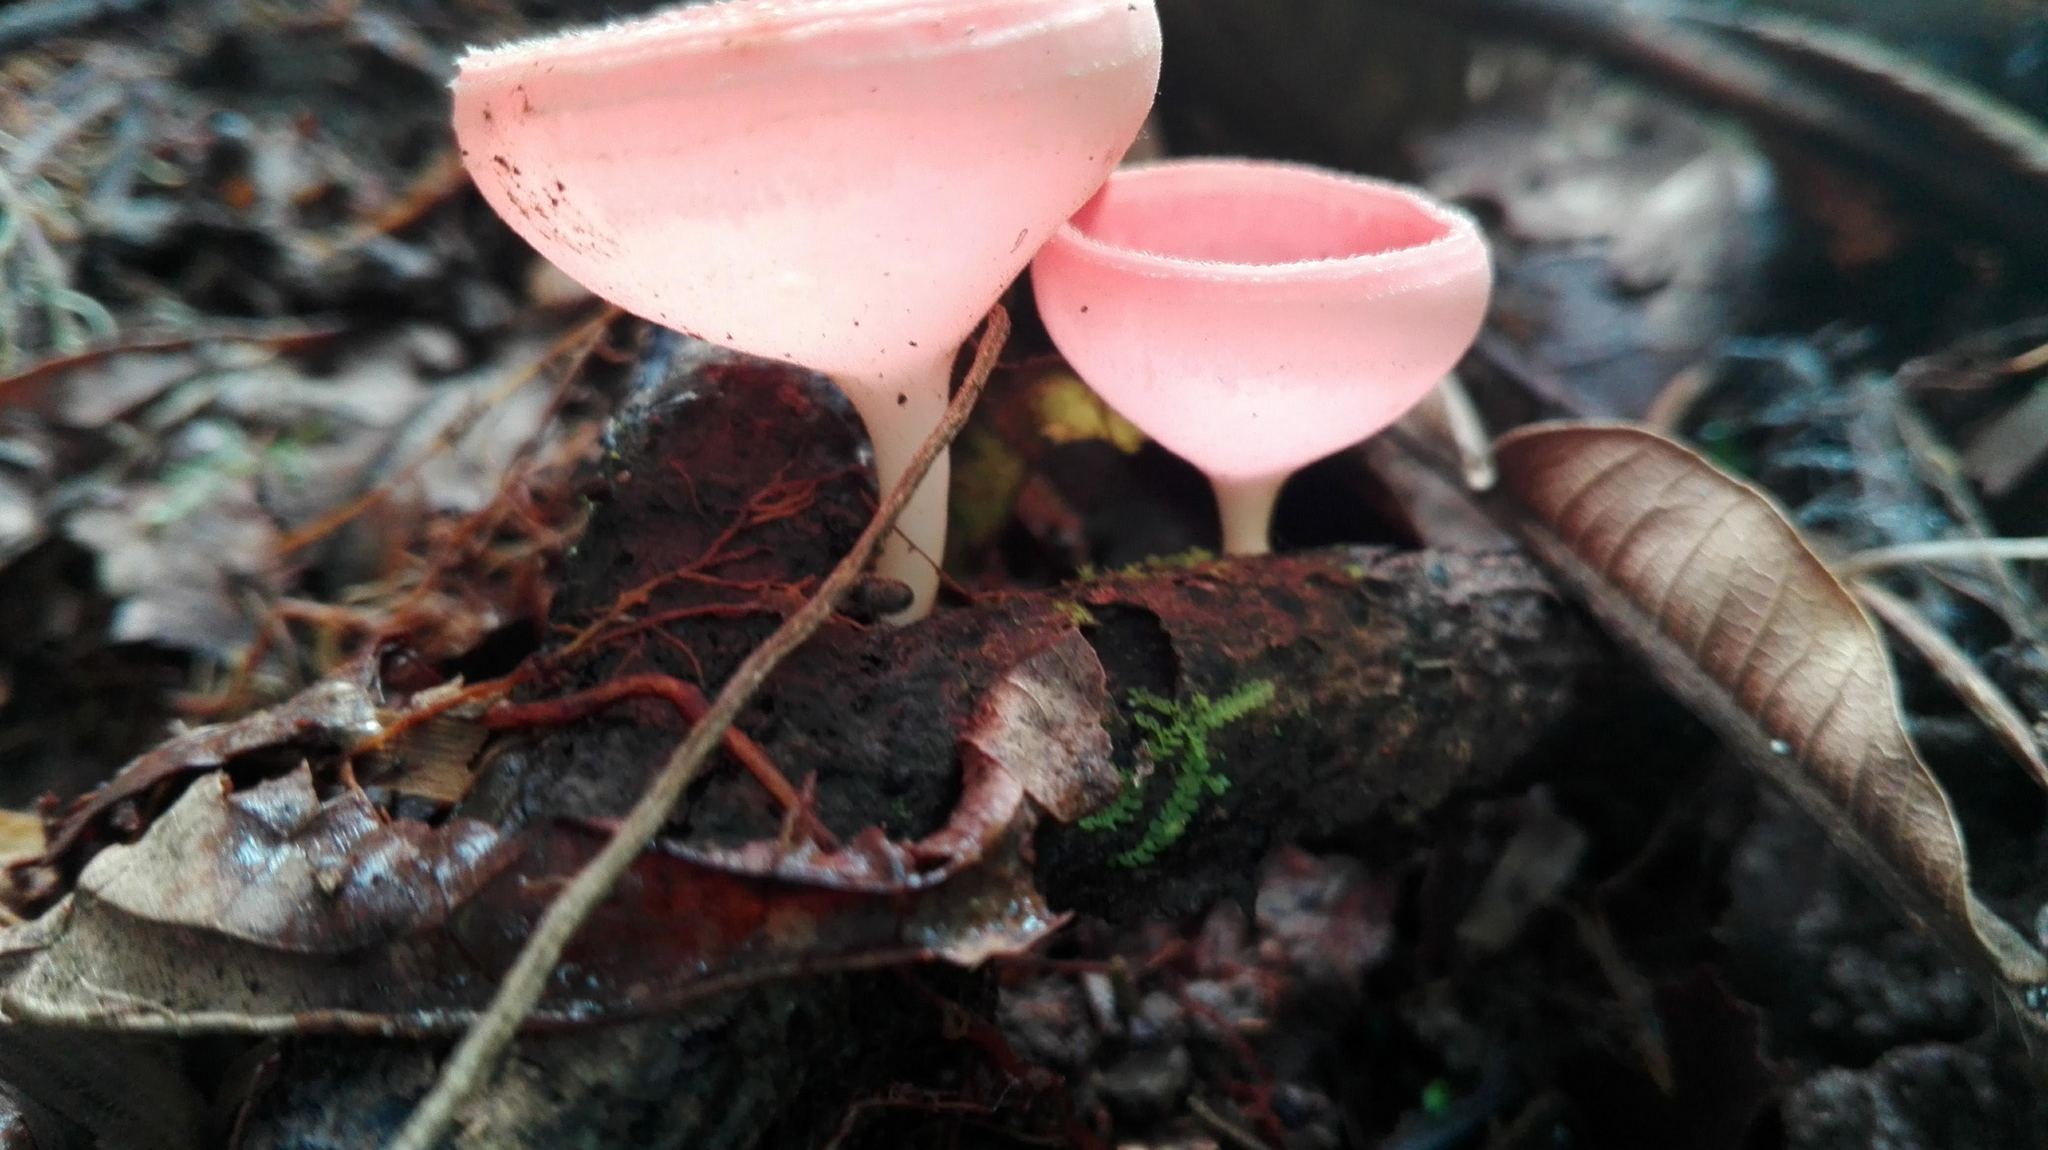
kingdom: Fungi
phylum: Ascomycota
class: Pezizomycetes
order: Pezizales
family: Sarcoscyphaceae
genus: Cookeina
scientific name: Cookeina speciosa
